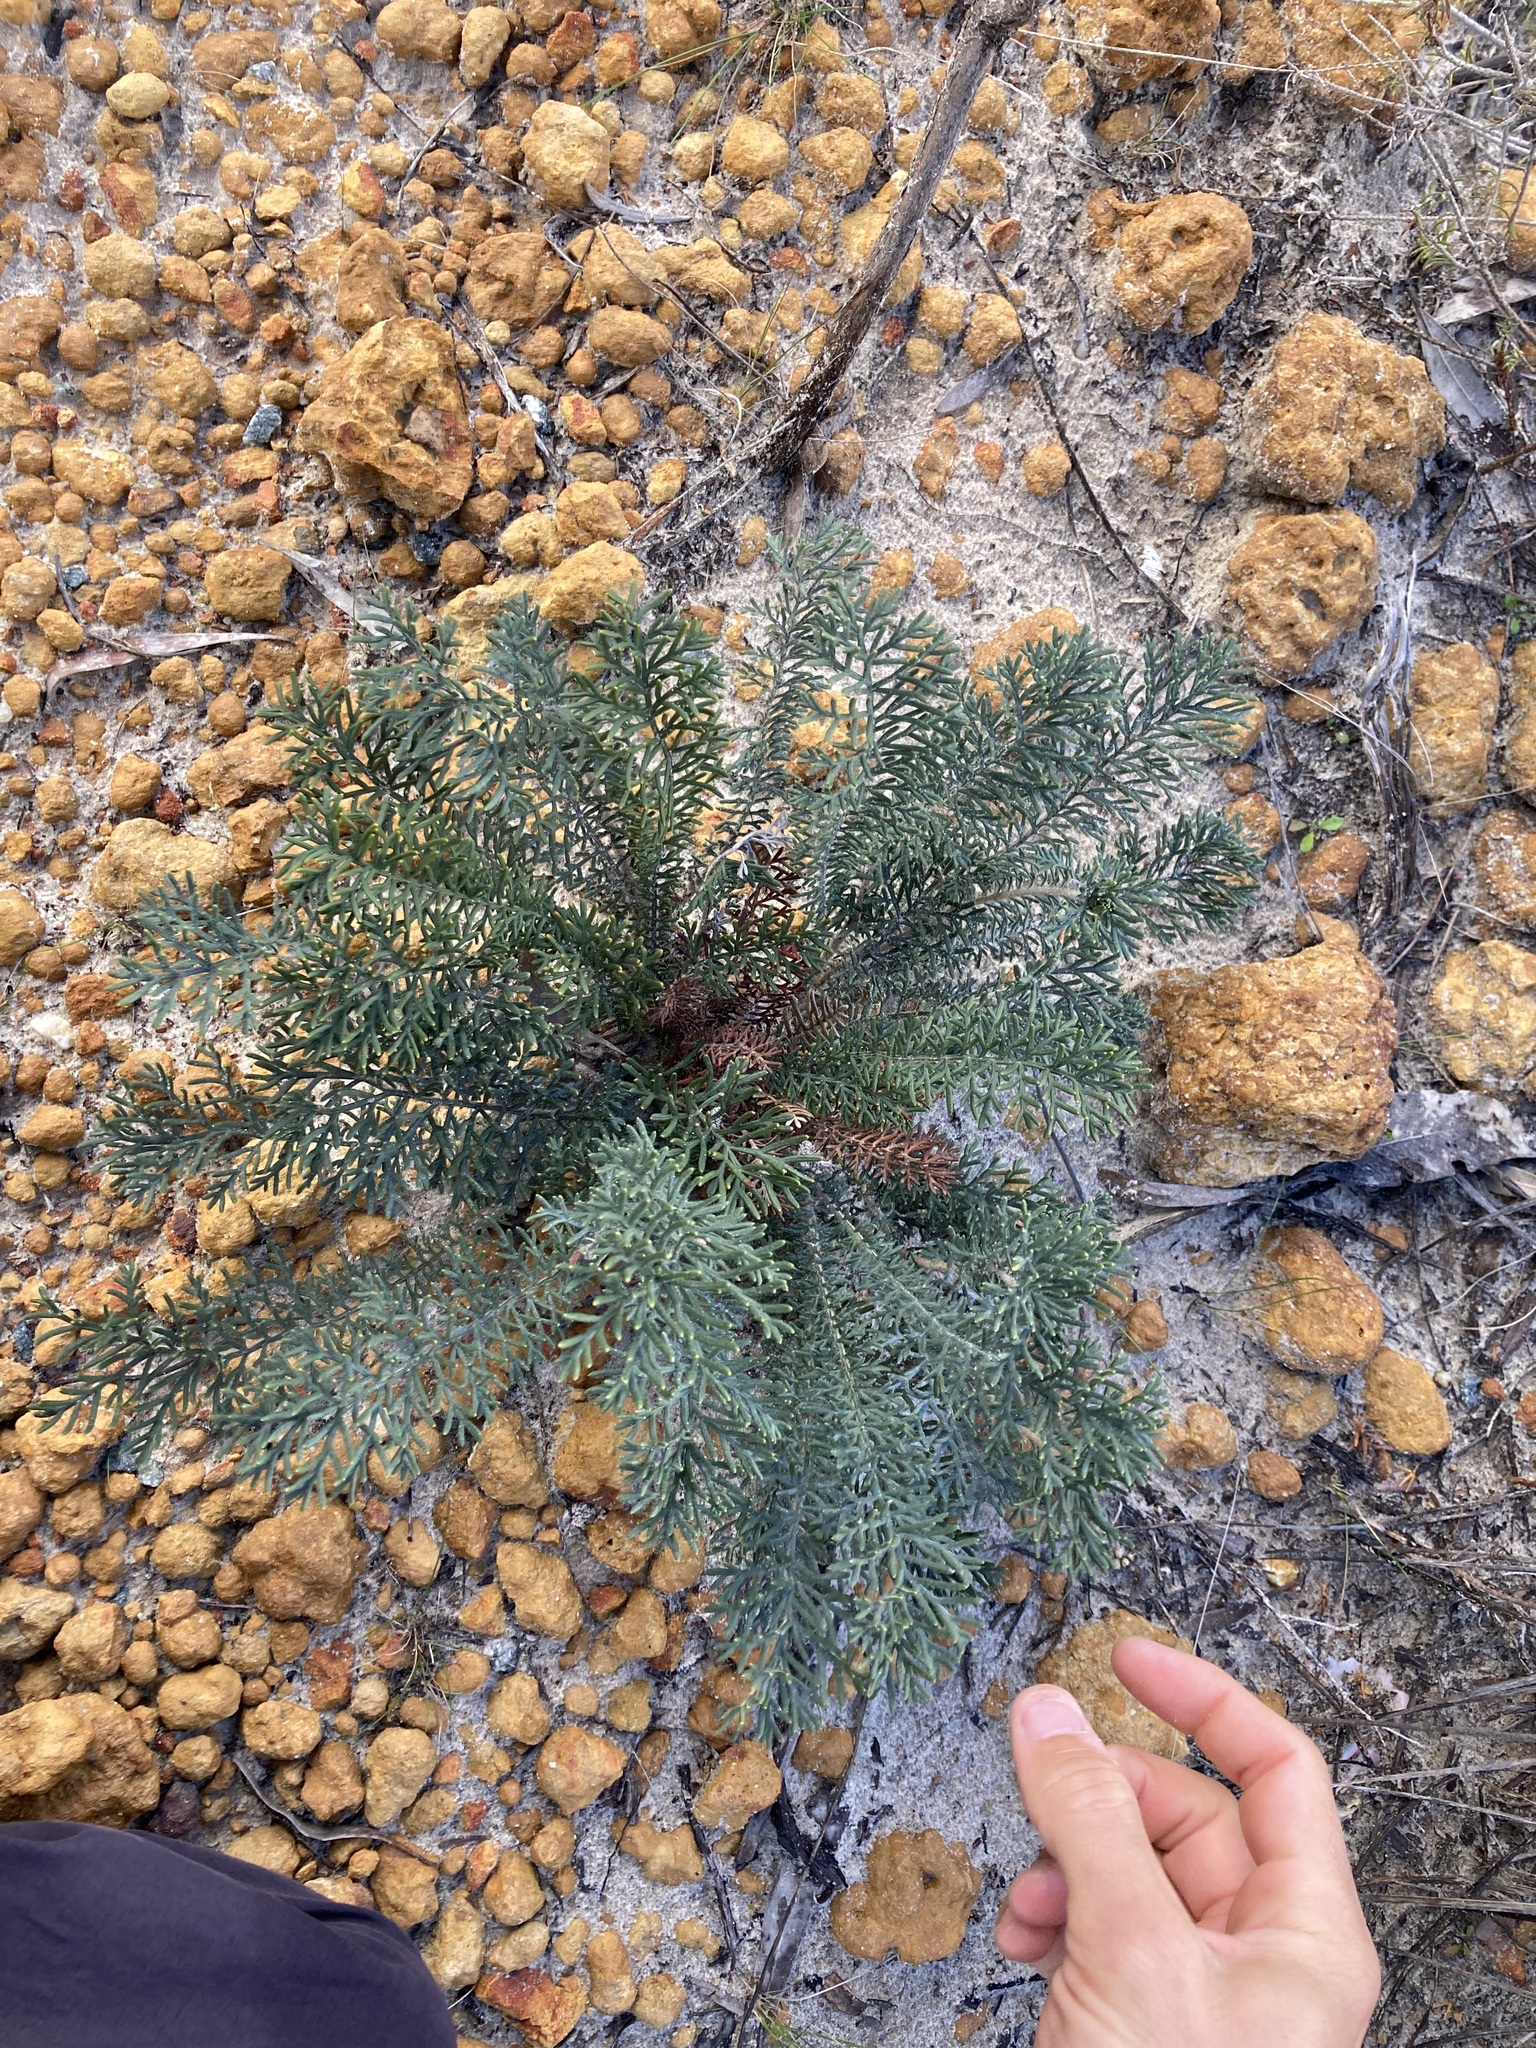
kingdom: Plantae
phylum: Tracheophyta
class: Magnoliopsida
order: Proteales
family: Proteaceae
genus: Banksia
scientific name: Banksia bipinnatifida
